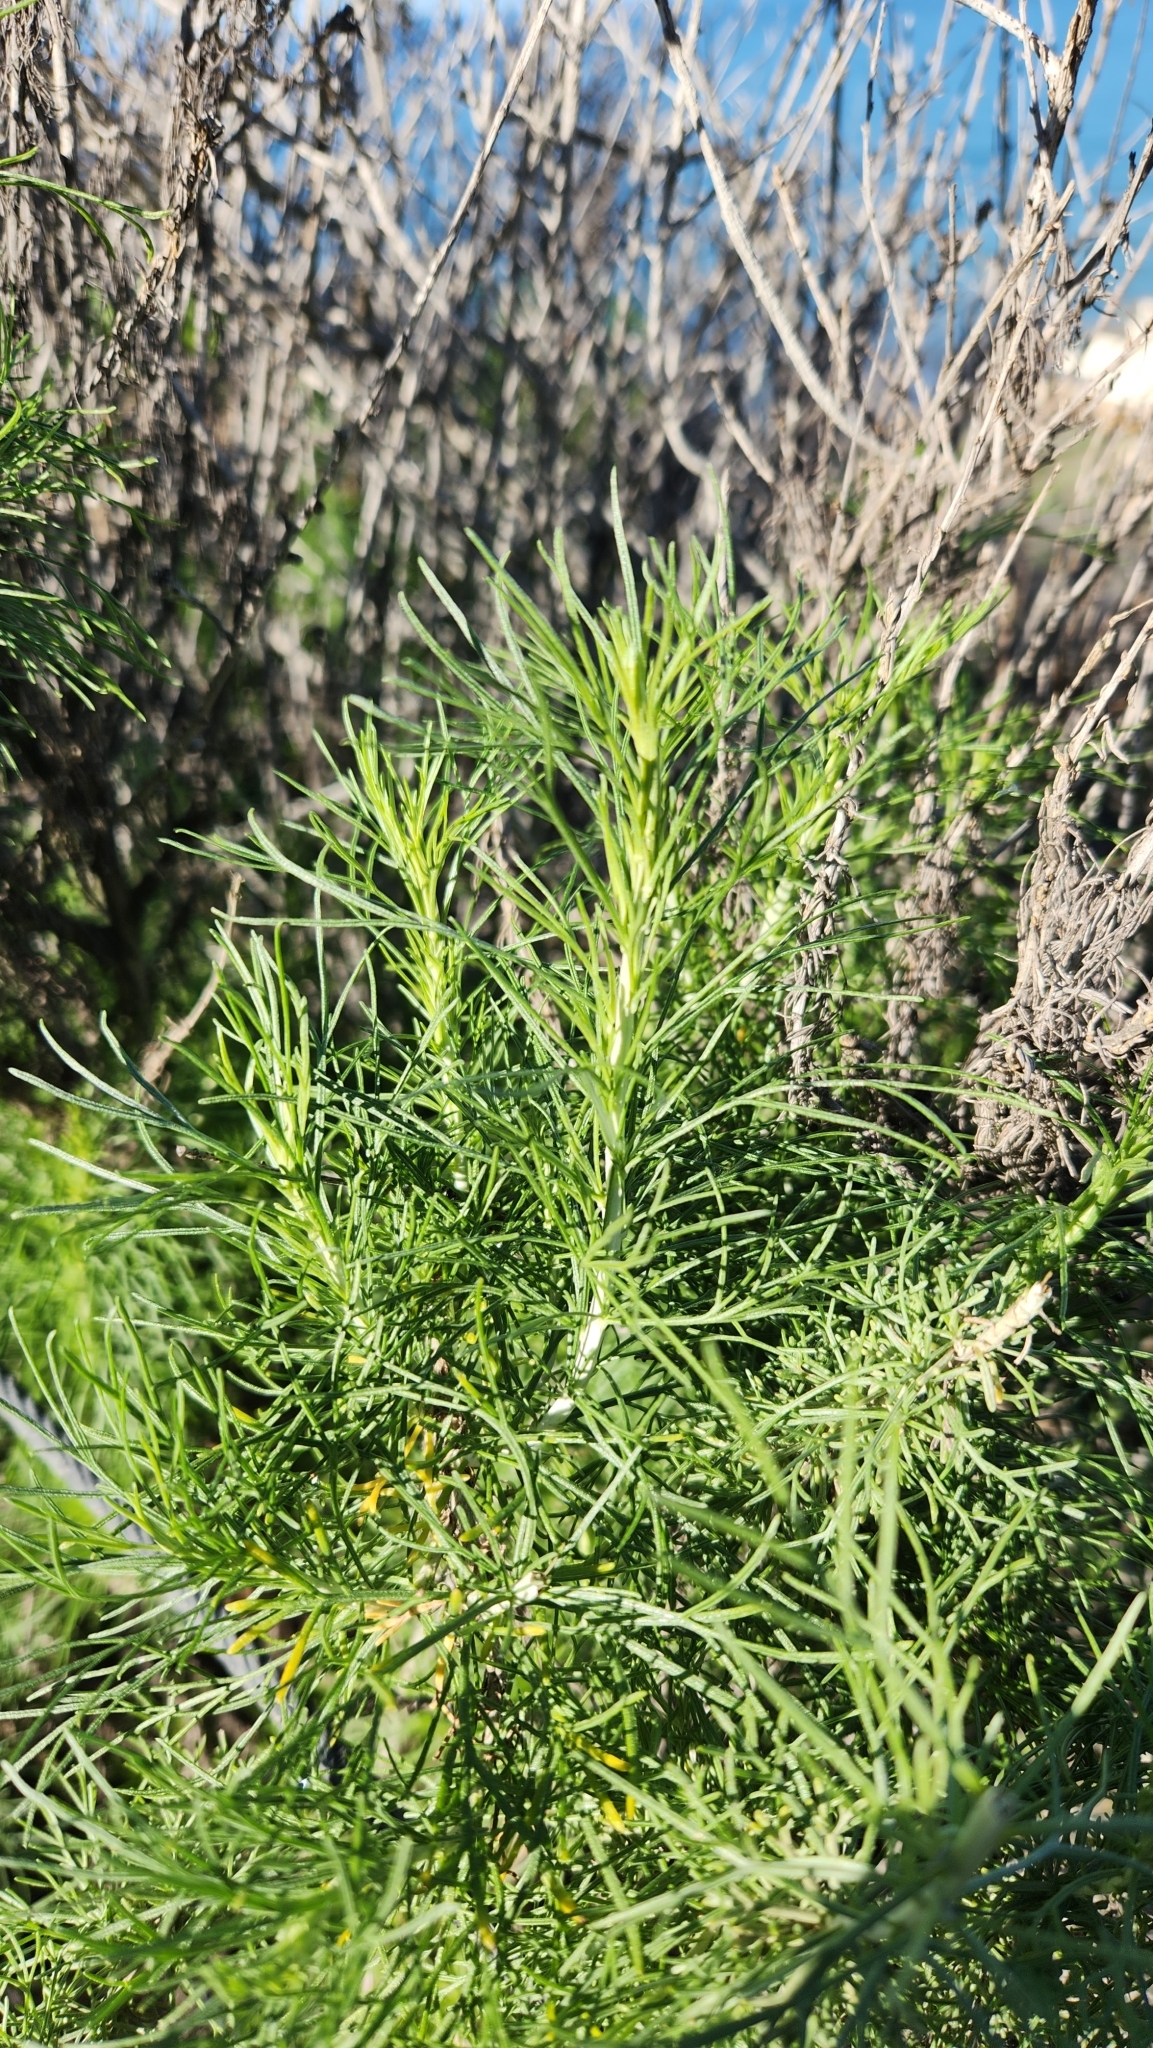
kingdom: Plantae
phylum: Tracheophyta
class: Magnoliopsida
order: Asterales
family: Asteraceae
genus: Artemisia
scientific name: Artemisia californica
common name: California sagebrush
